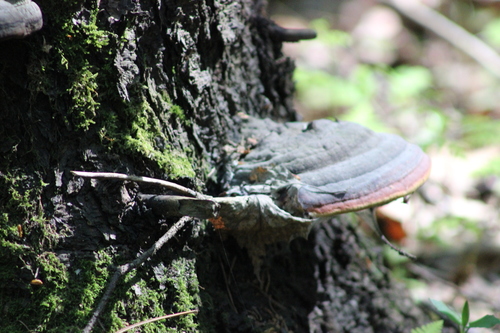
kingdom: Fungi
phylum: Basidiomycota
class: Agaricomycetes
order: Polyporales
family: Fomitopsidaceae
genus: Fomitopsis
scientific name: Fomitopsis pinicola
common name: Red-belted bracket
